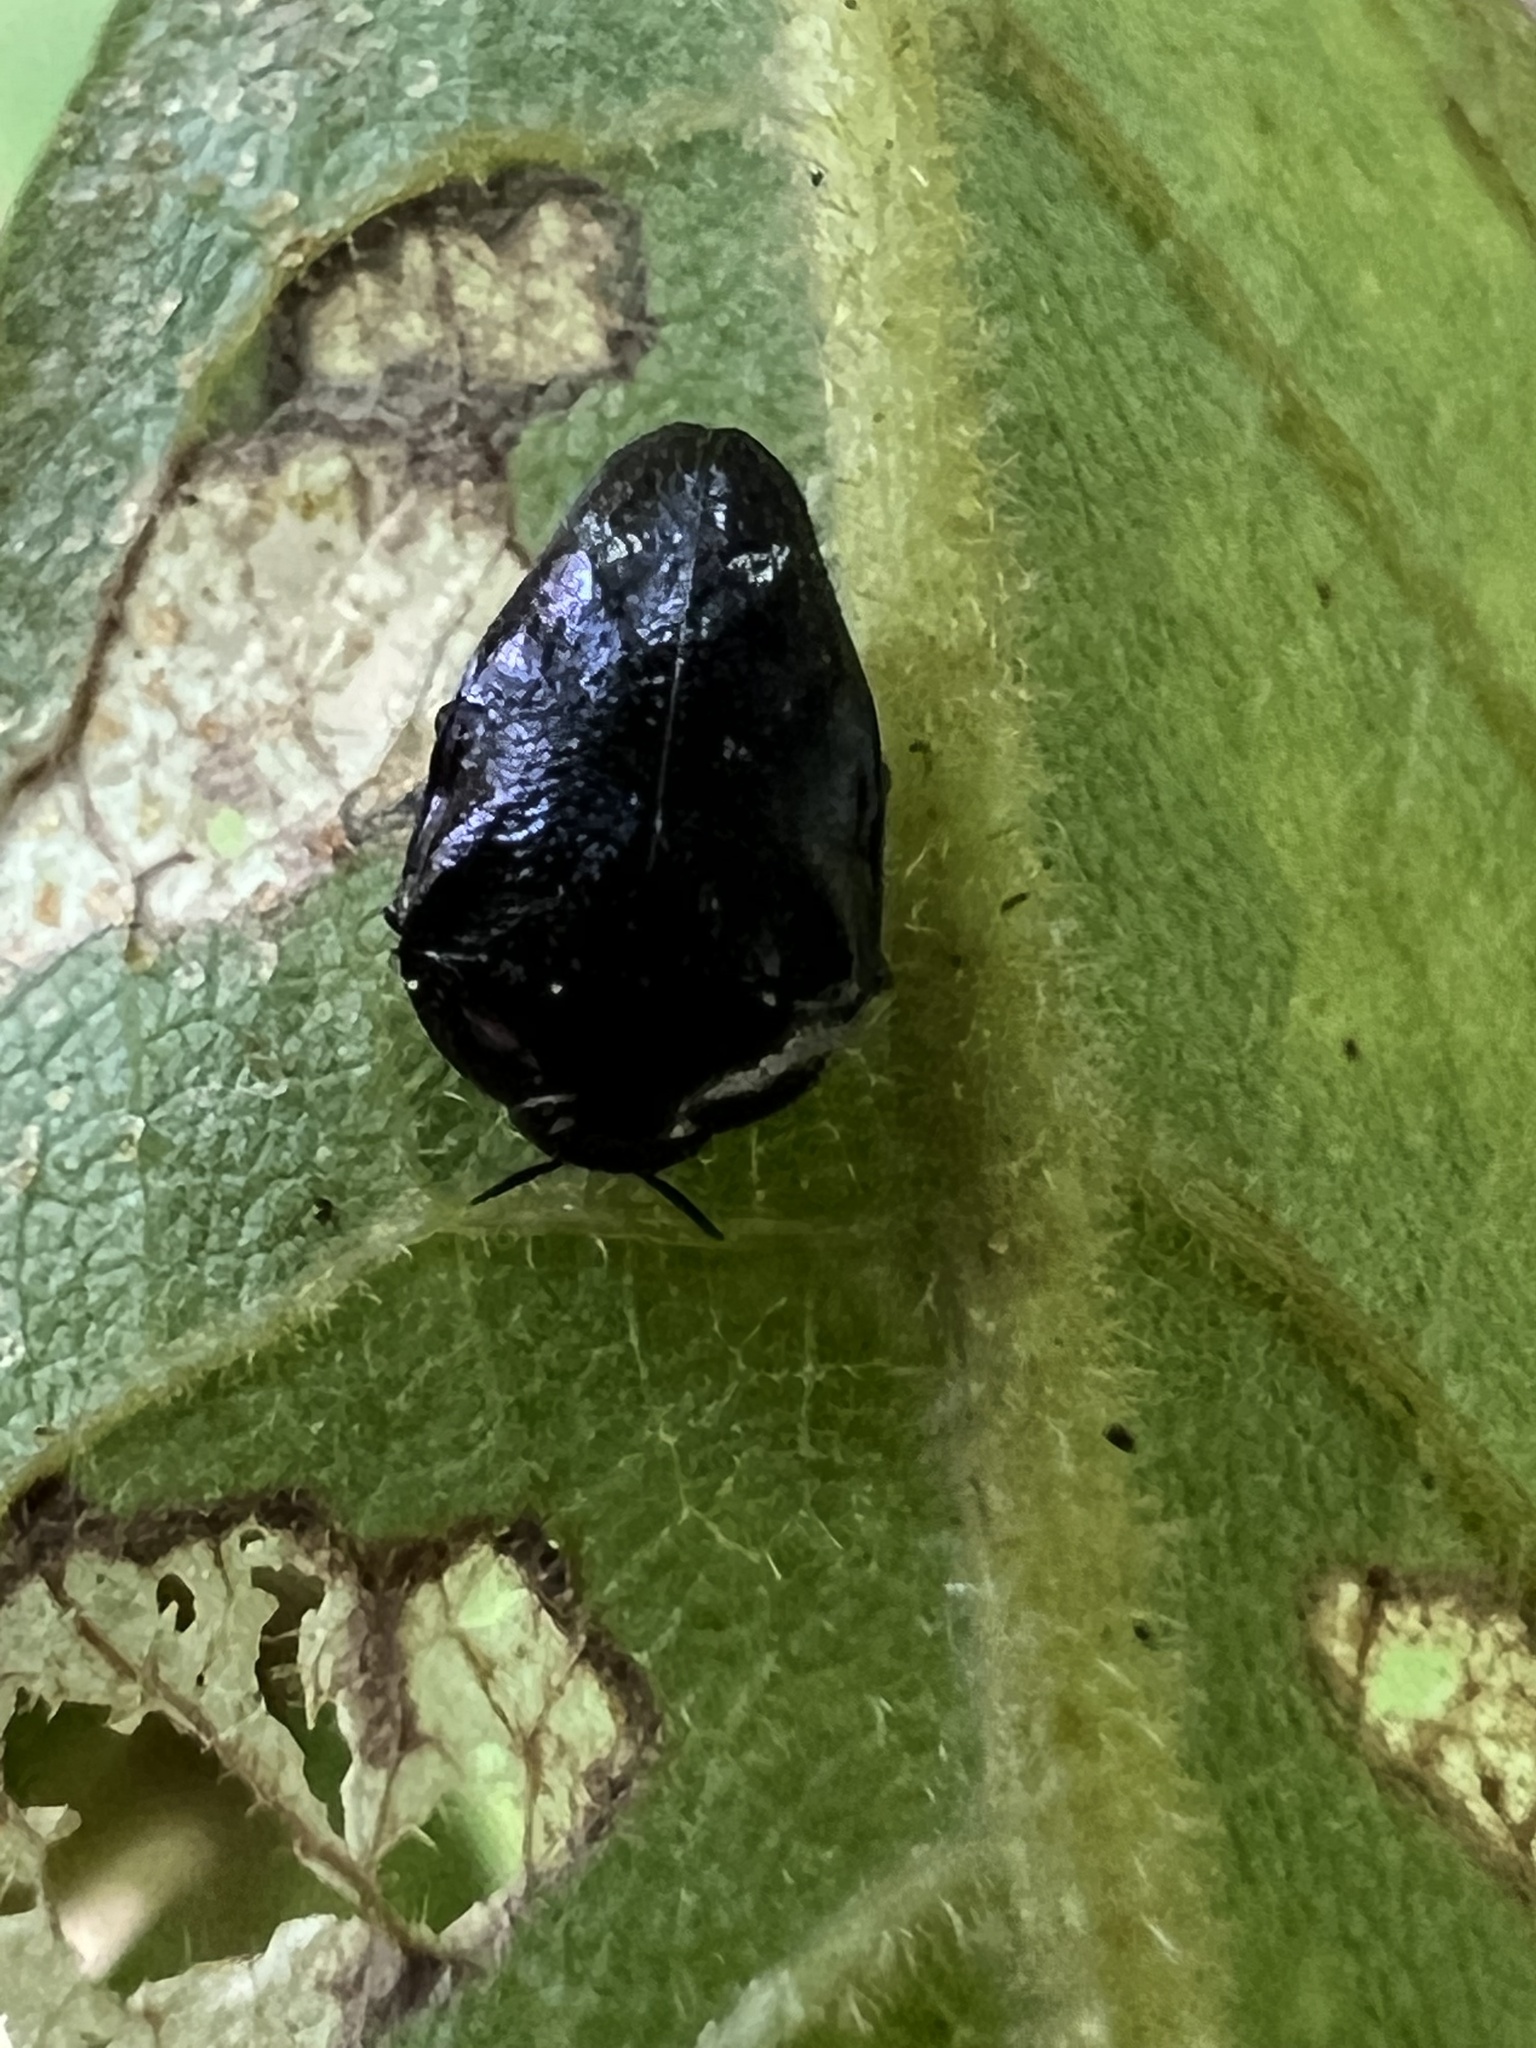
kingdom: Animalia
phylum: Arthropoda
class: Insecta
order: Coleoptera
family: Buprestidae
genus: Pachyschelus
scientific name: Pachyschelus purpureus
